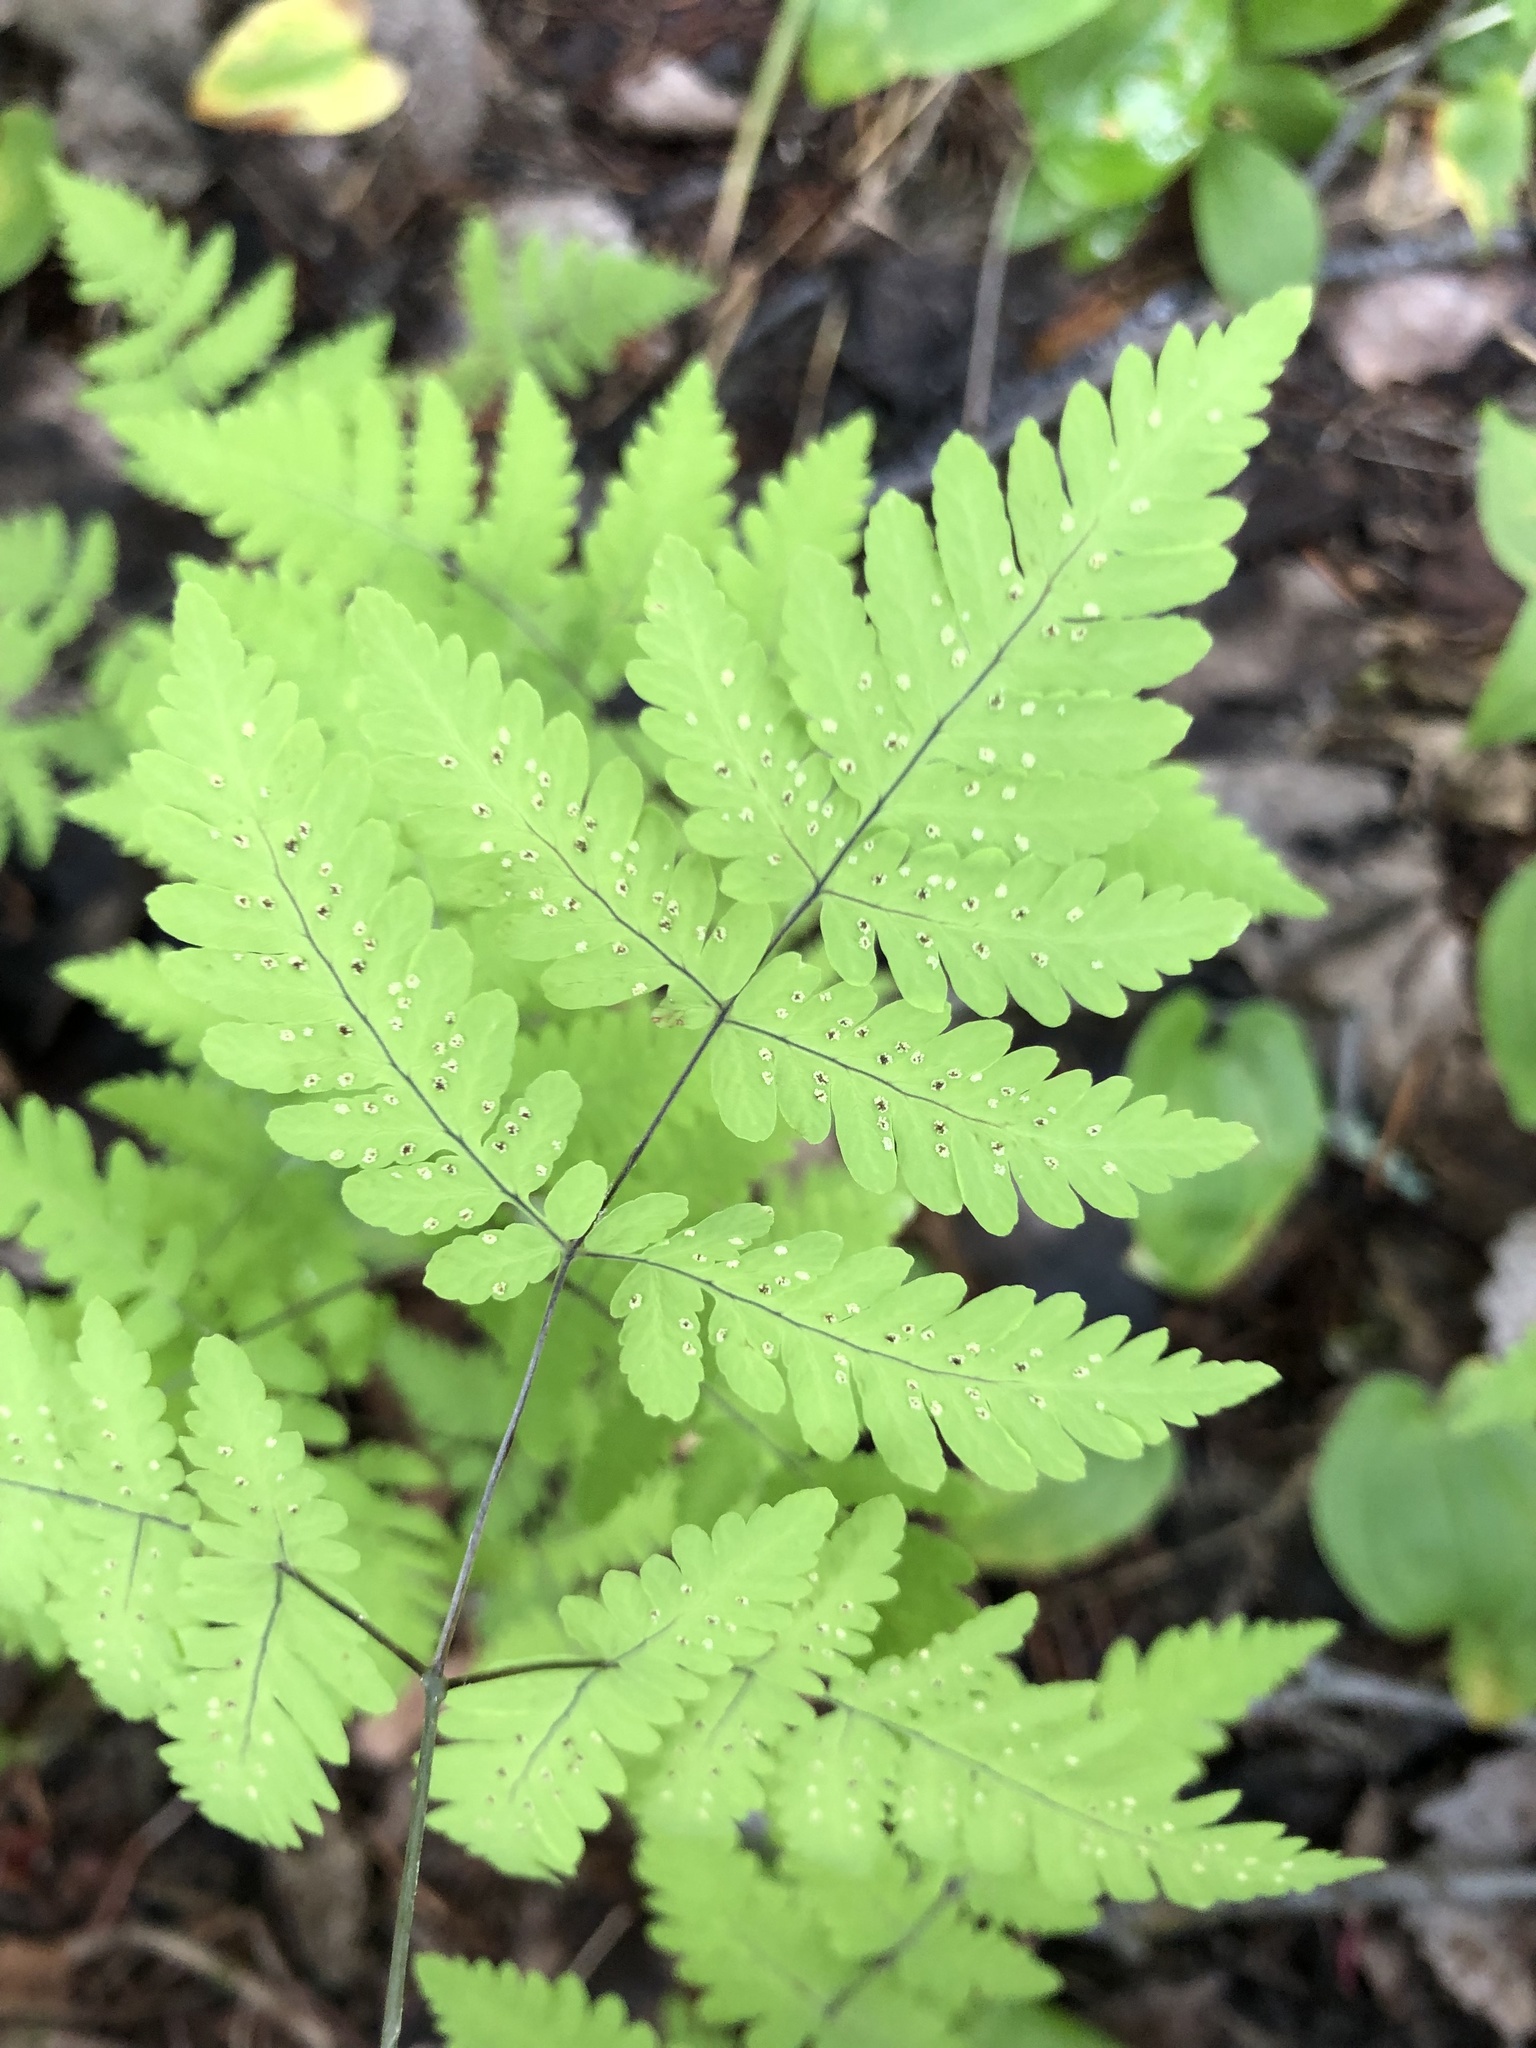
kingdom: Plantae
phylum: Tracheophyta
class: Polypodiopsida
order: Polypodiales
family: Cystopteridaceae
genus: Gymnocarpium
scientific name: Gymnocarpium dryopteris
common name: Oak fern
